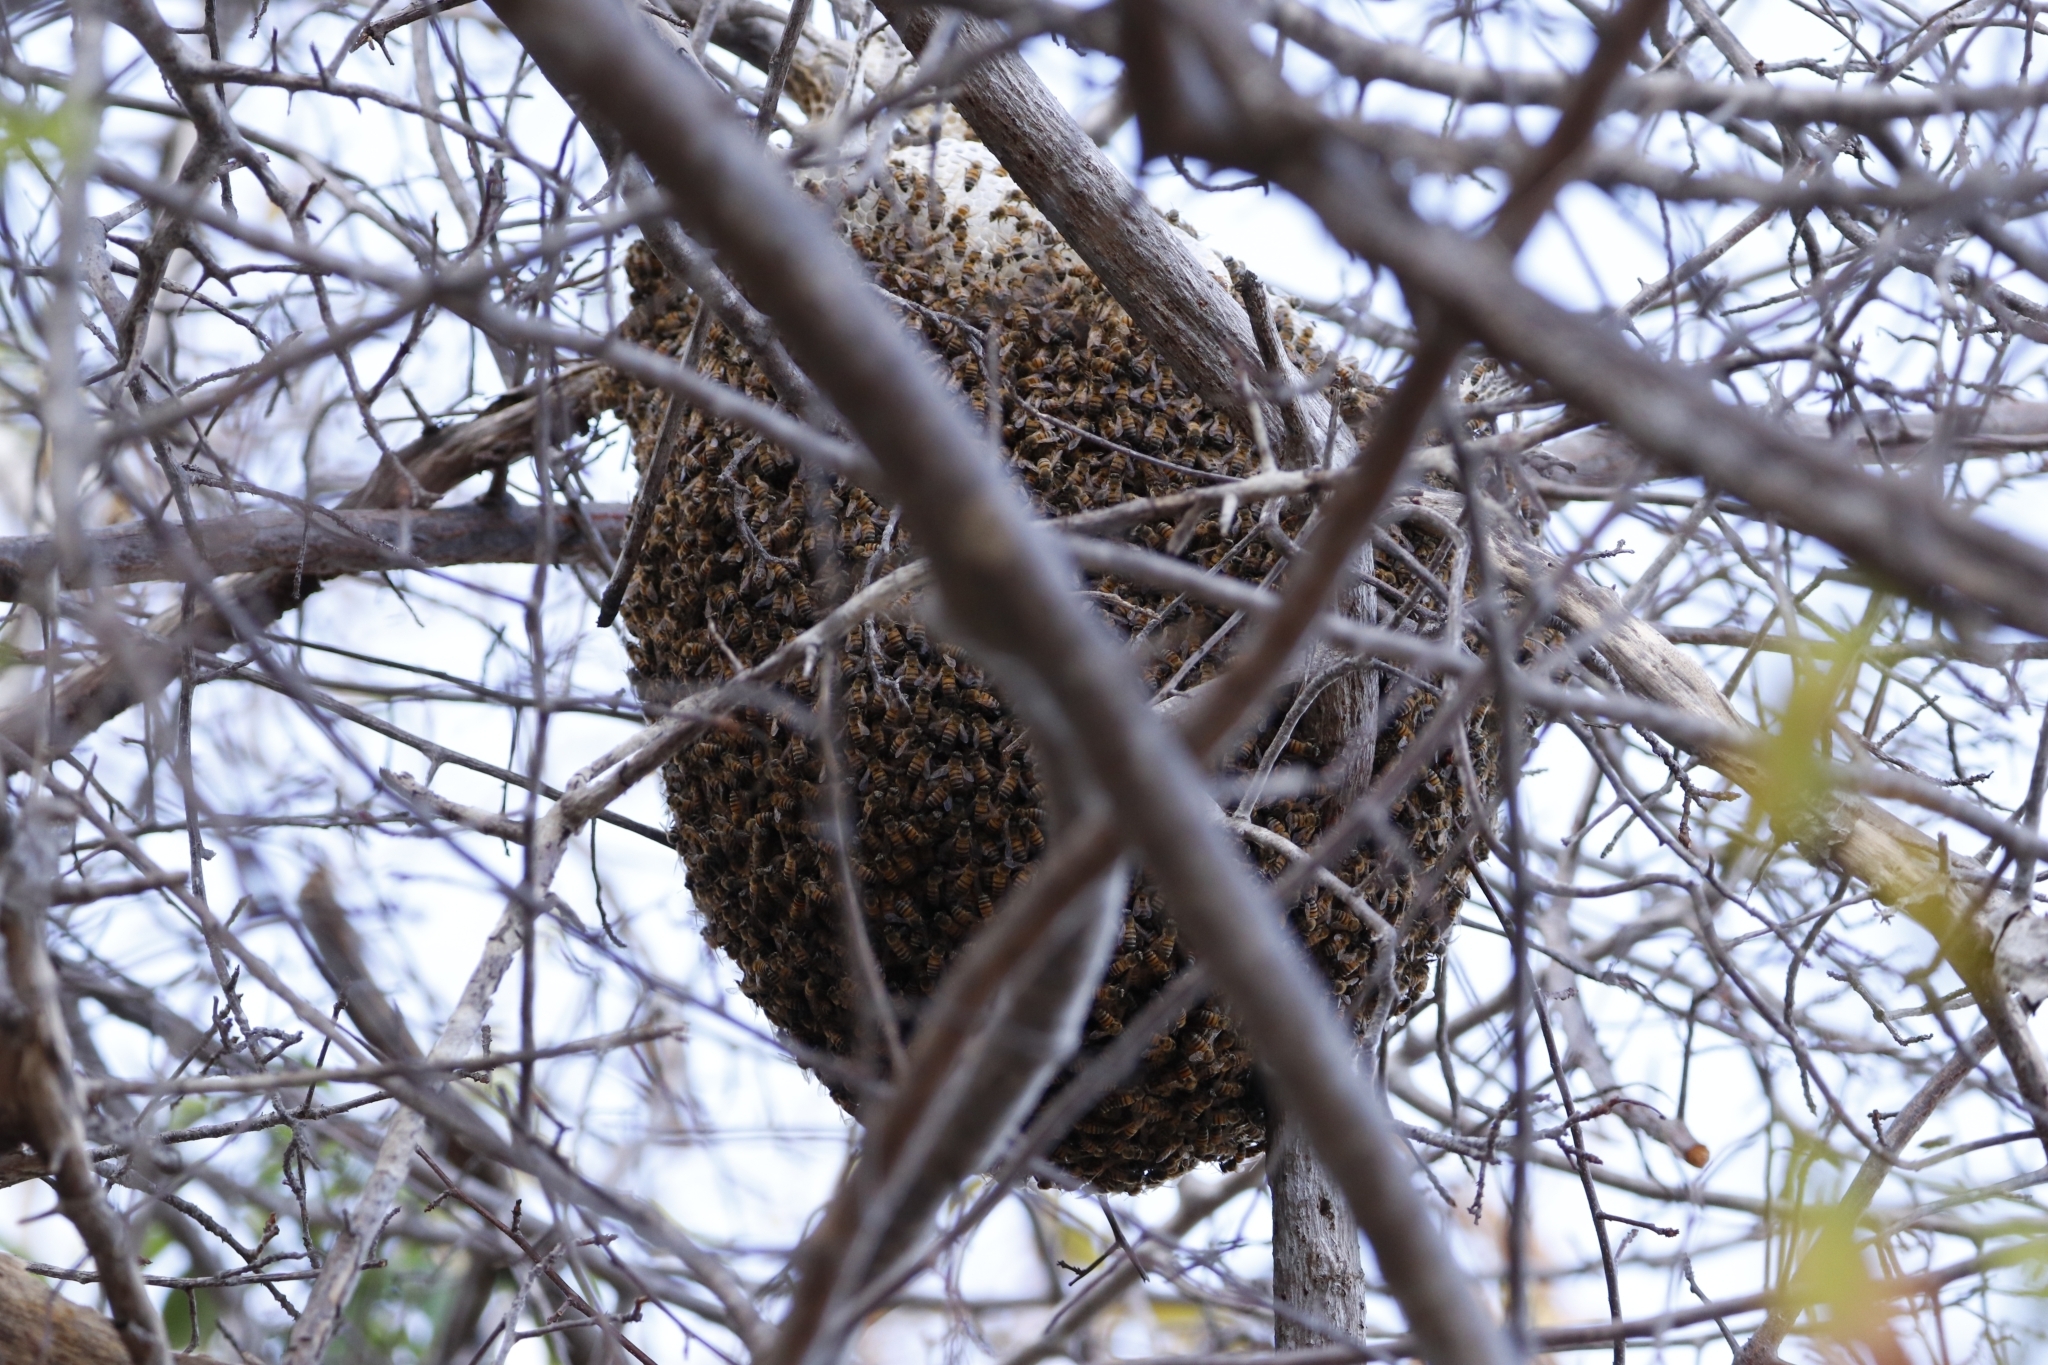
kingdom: Animalia
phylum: Arthropoda
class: Insecta
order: Hymenoptera
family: Apidae
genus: Apis
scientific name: Apis mellifera
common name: Honey bee
